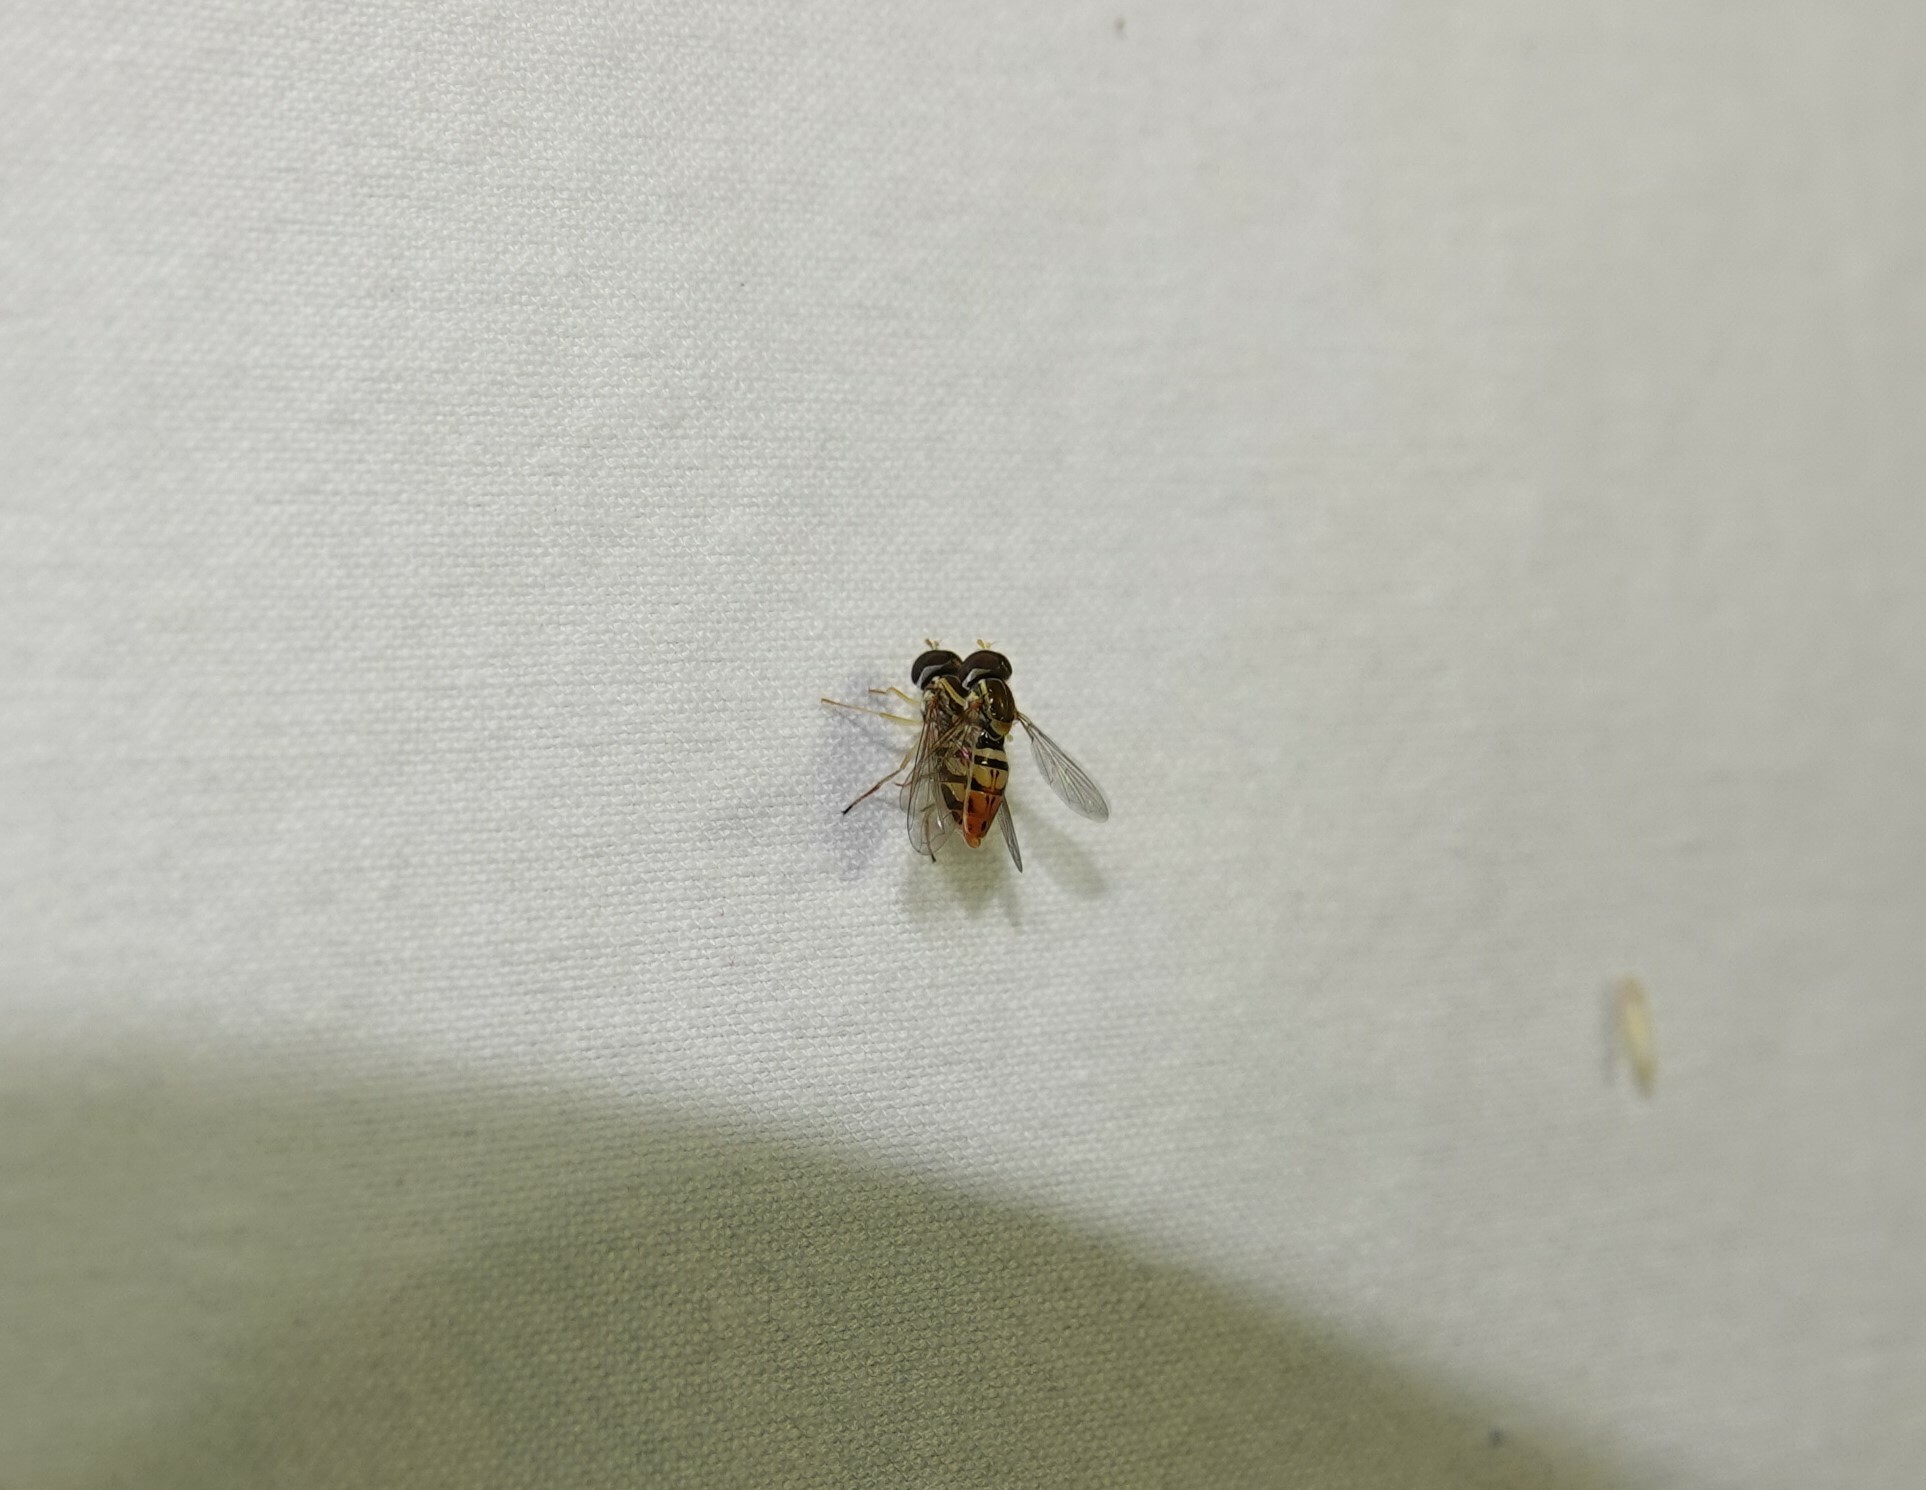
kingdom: Animalia
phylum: Arthropoda
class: Insecta
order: Diptera
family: Syrphidae
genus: Toxomerus
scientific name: Toxomerus marginatus
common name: Syrphid fly
